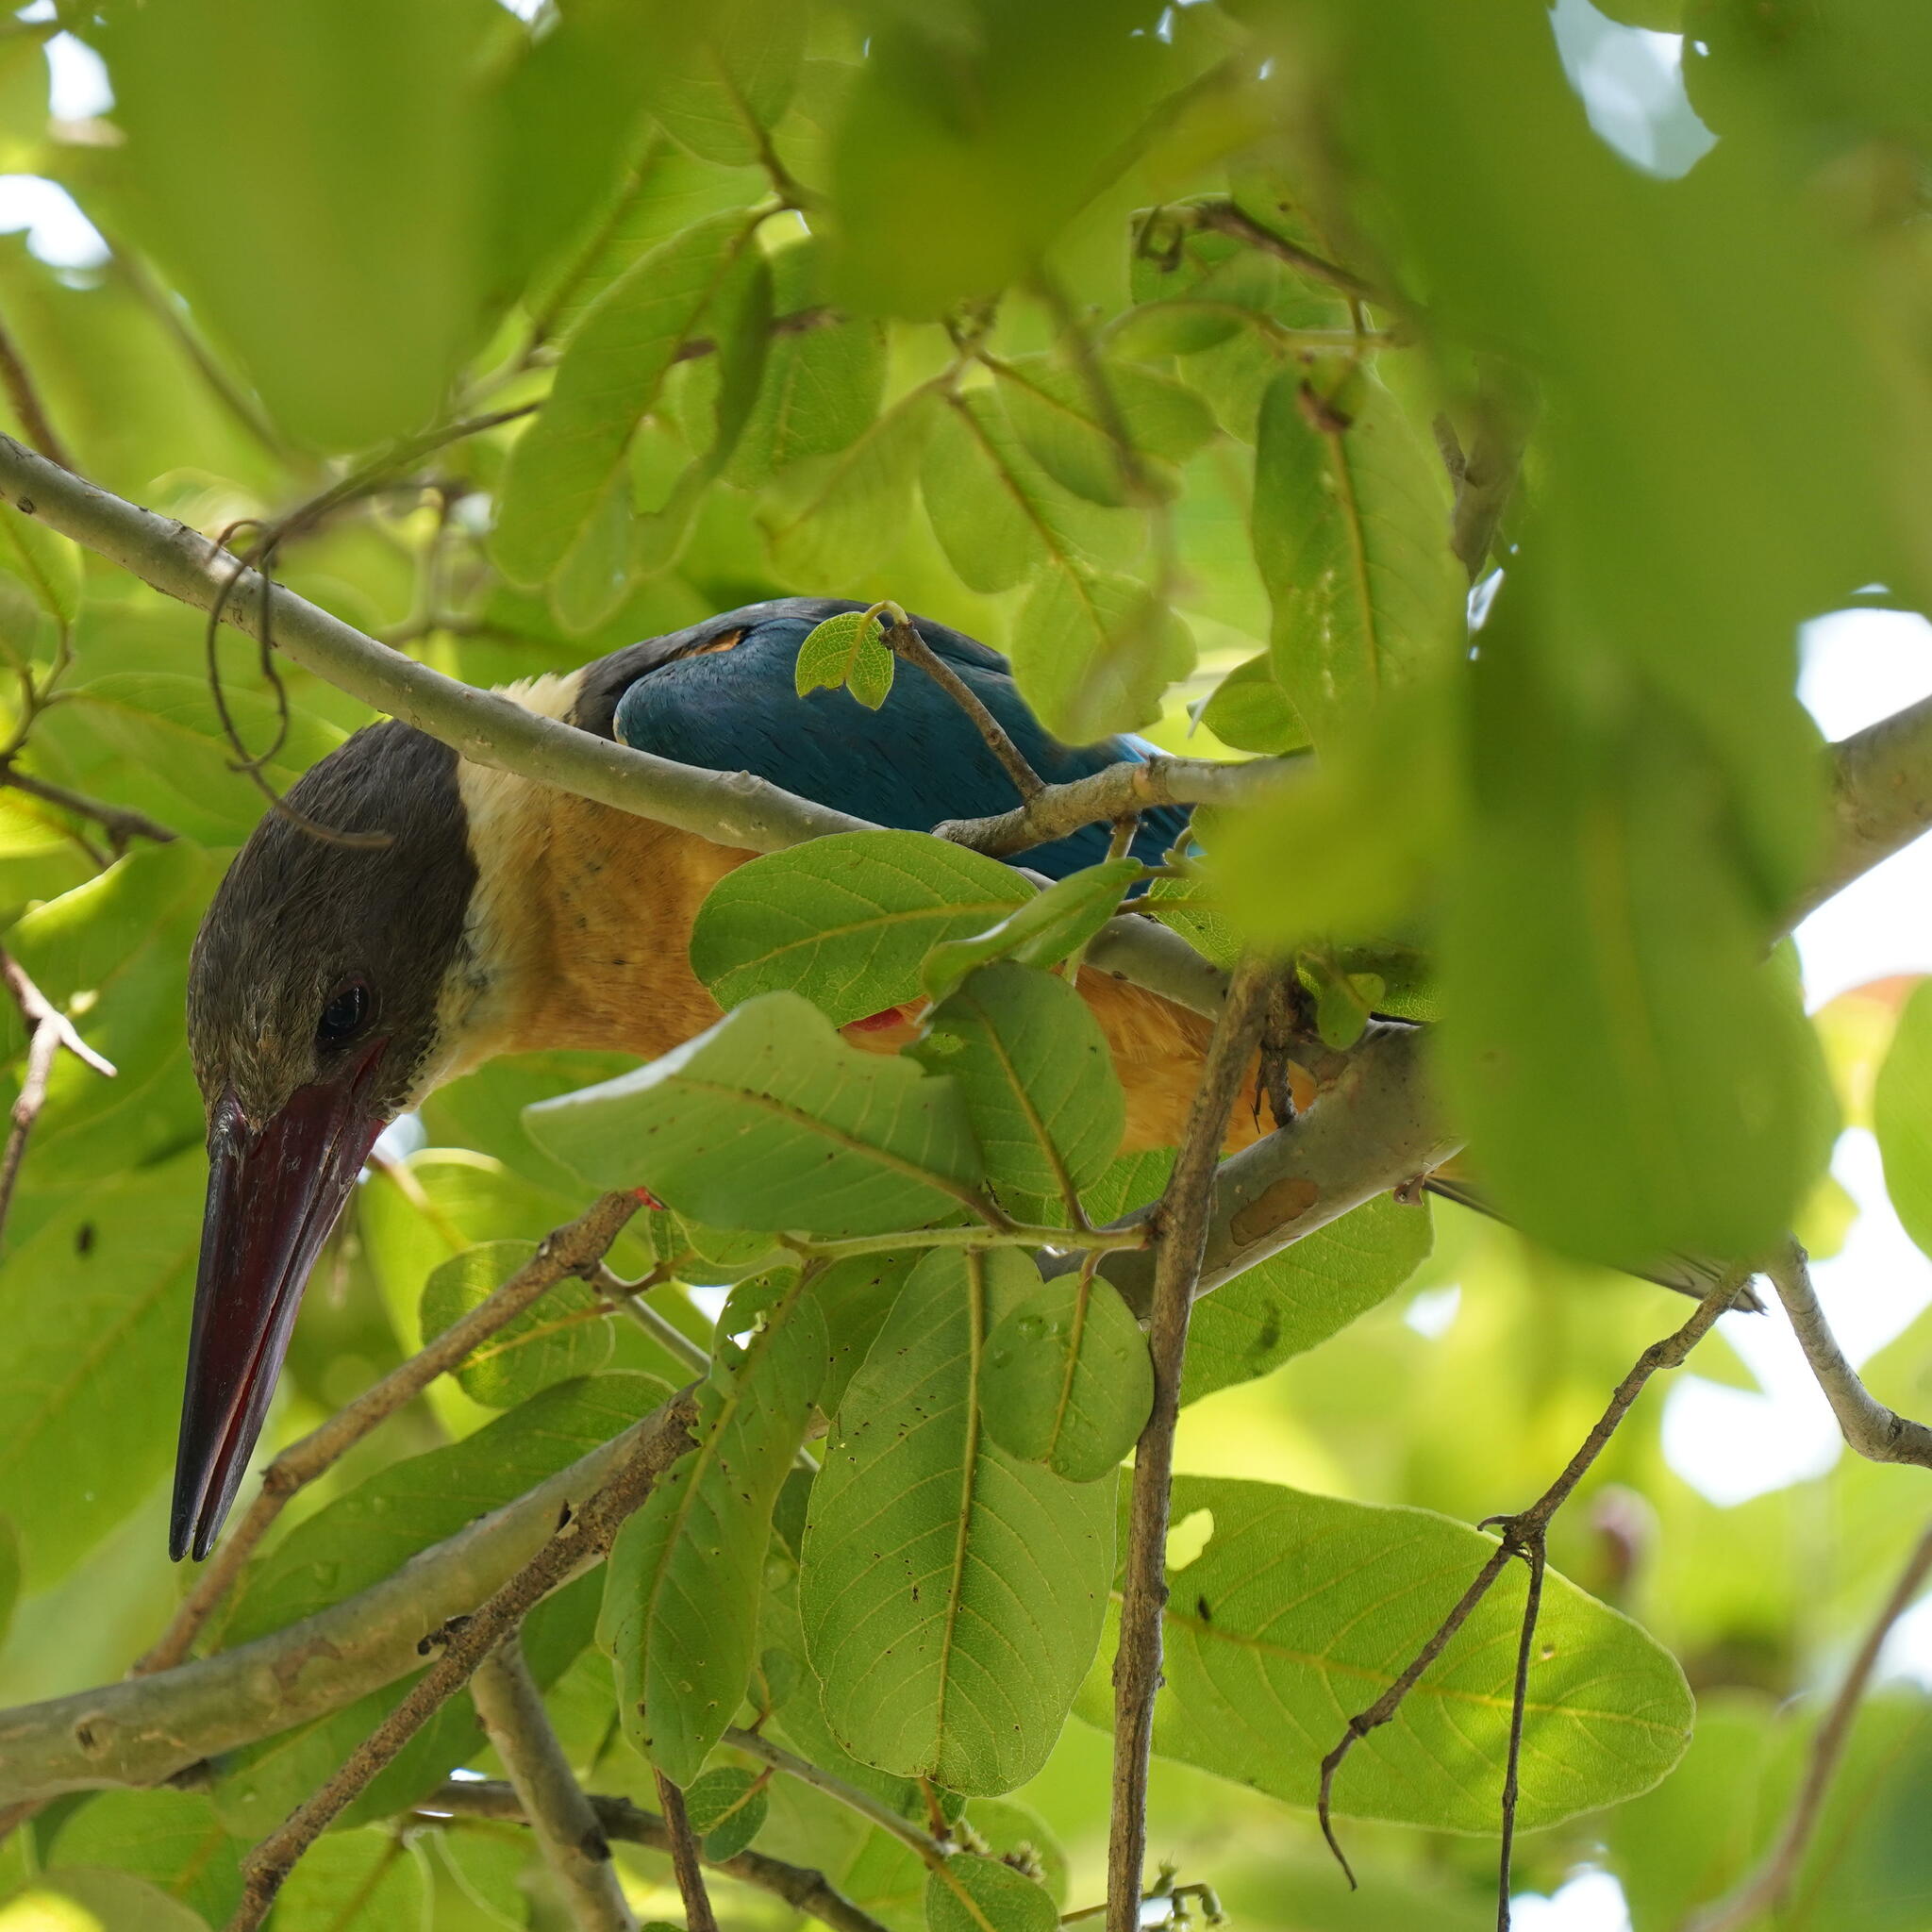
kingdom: Animalia
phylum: Chordata
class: Aves
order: Coraciiformes
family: Alcedinidae
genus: Pelargopsis
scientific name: Pelargopsis capensis
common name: Stork-billed kingfisher
